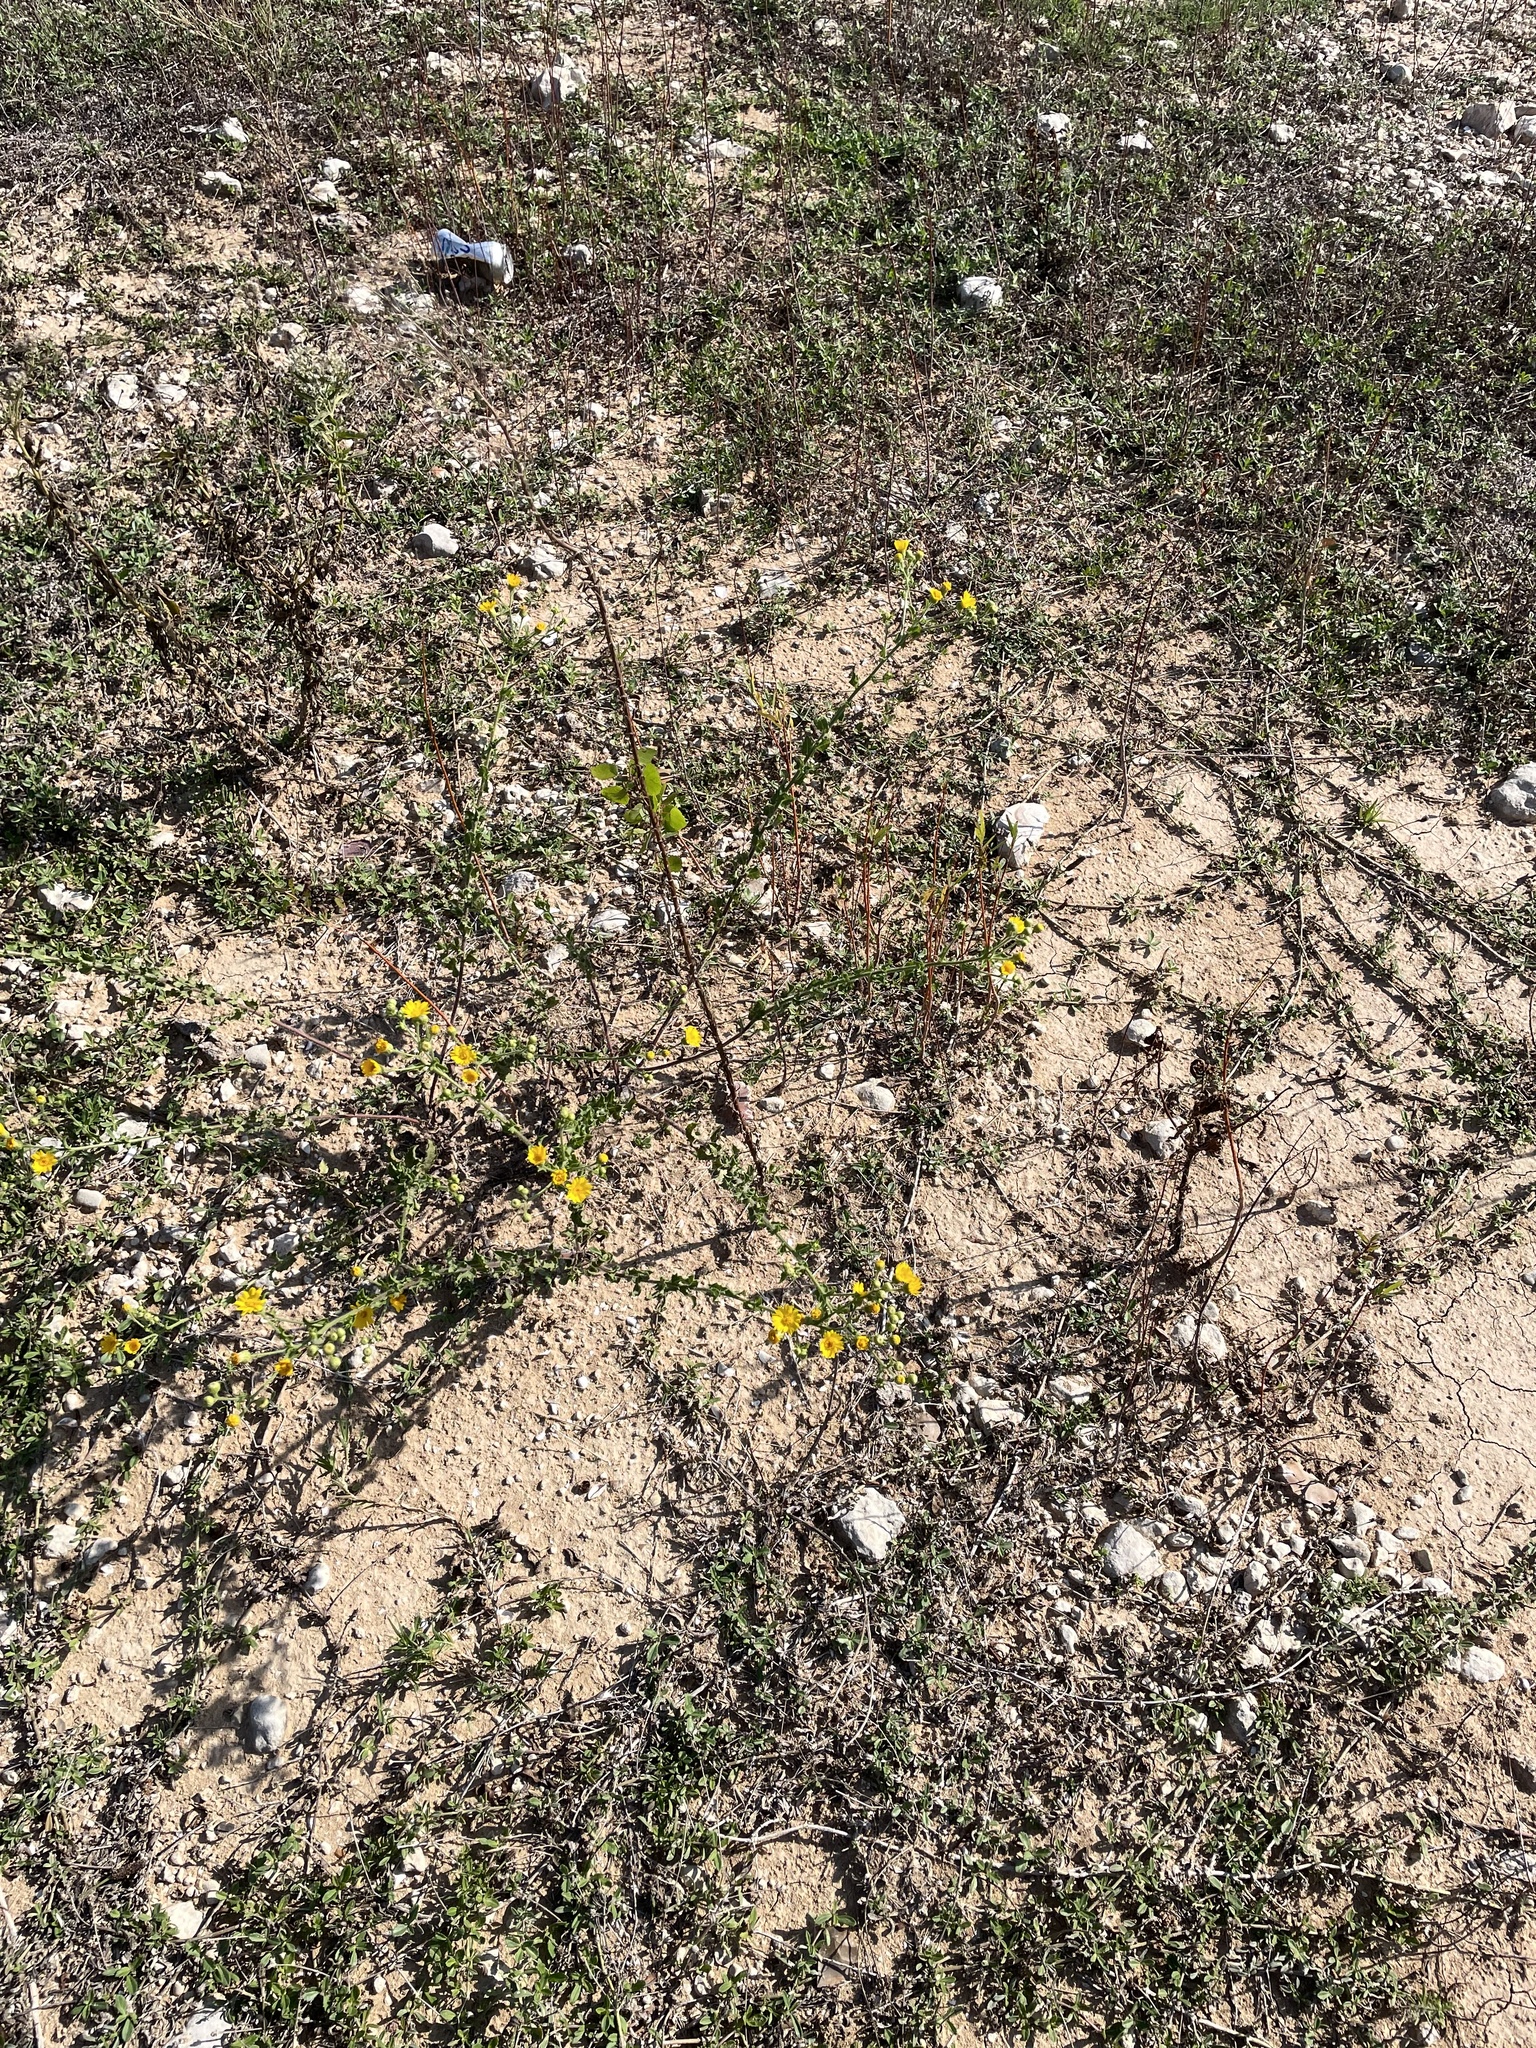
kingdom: Plantae
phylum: Tracheophyta
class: Magnoliopsida
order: Asterales
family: Asteraceae
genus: Heterotheca
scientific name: Heterotheca subaxillaris
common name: Camphorweed
